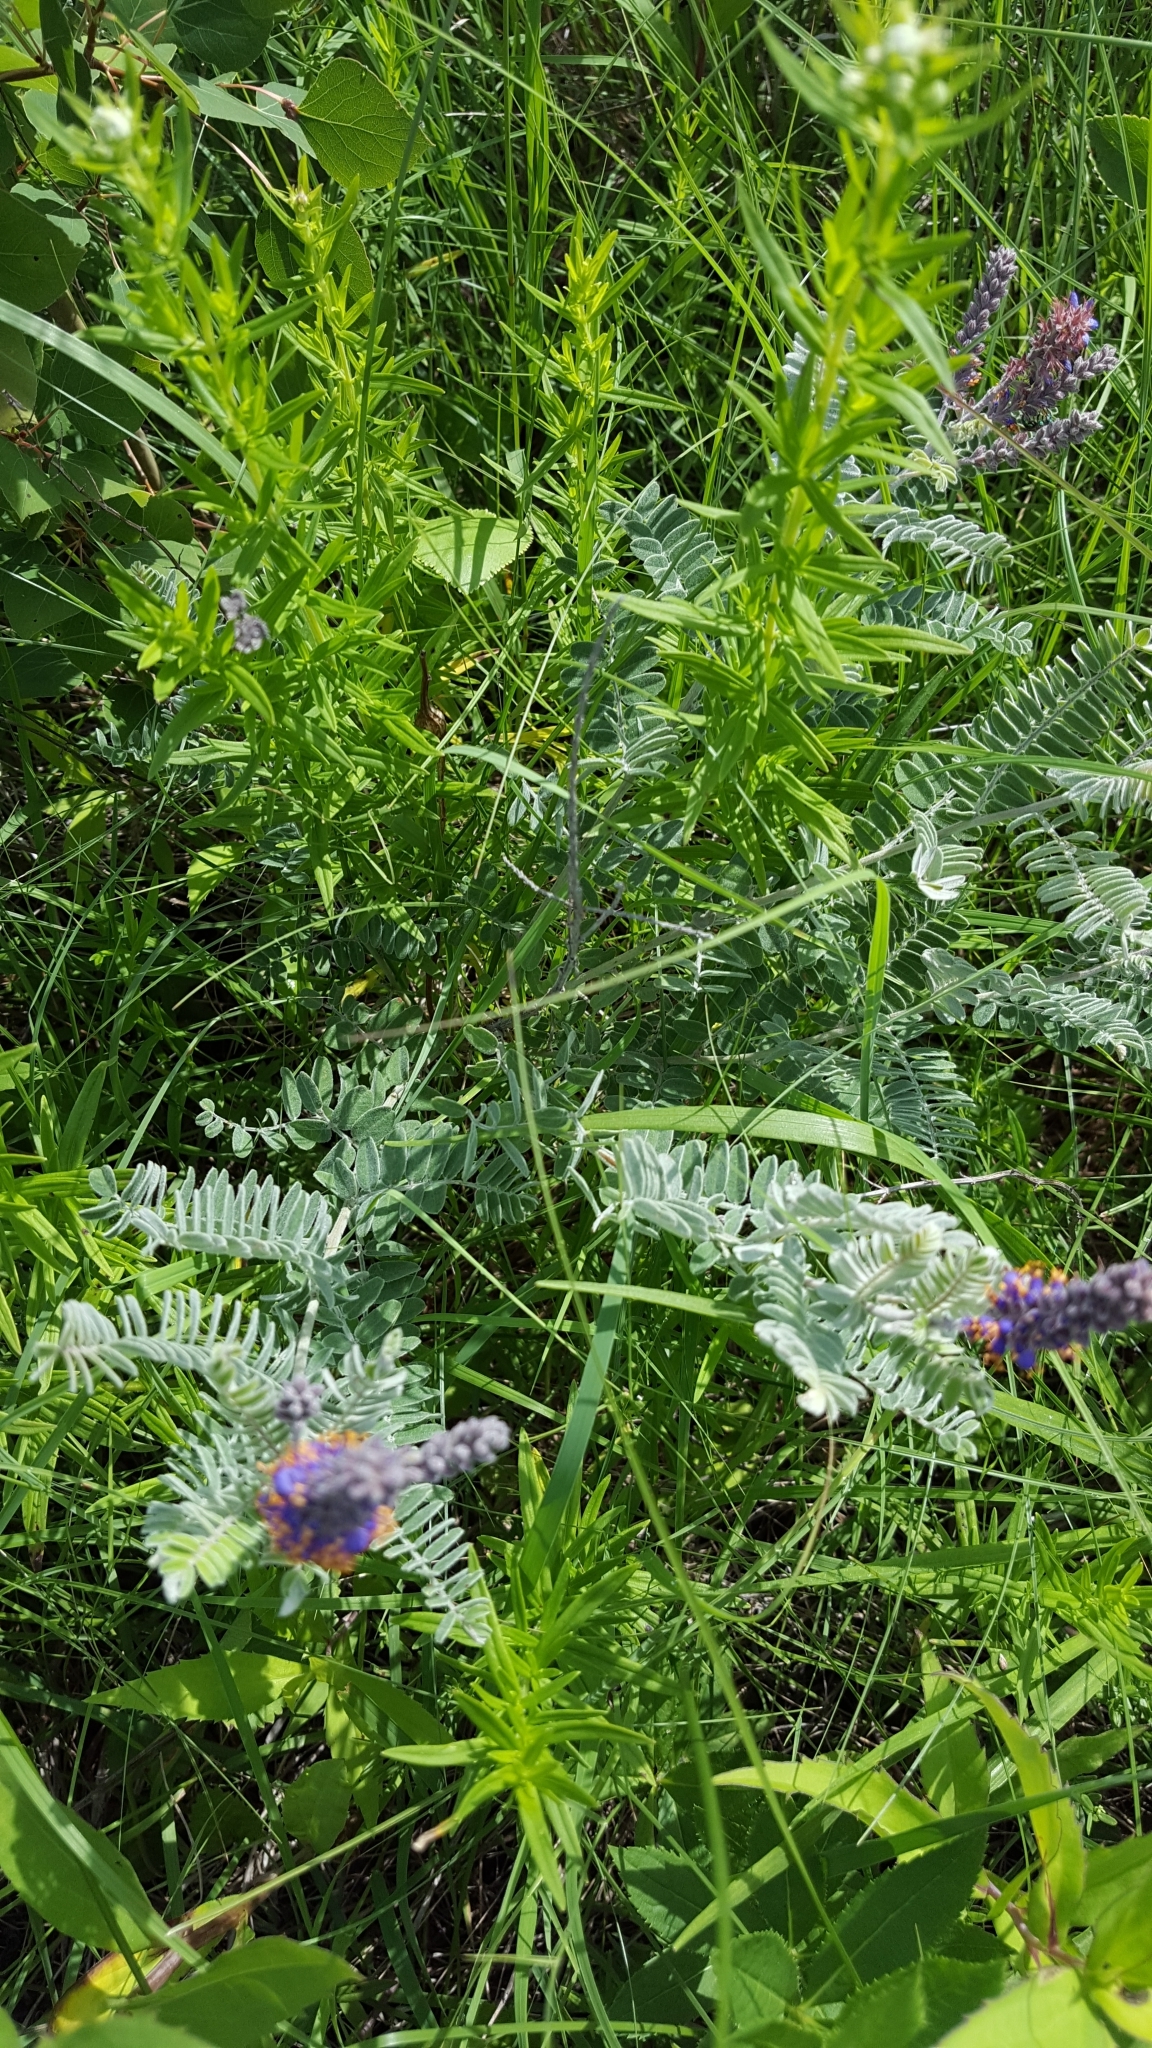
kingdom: Plantae
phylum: Tracheophyta
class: Magnoliopsida
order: Fabales
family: Fabaceae
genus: Amorpha
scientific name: Amorpha canescens
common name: Leadplant
